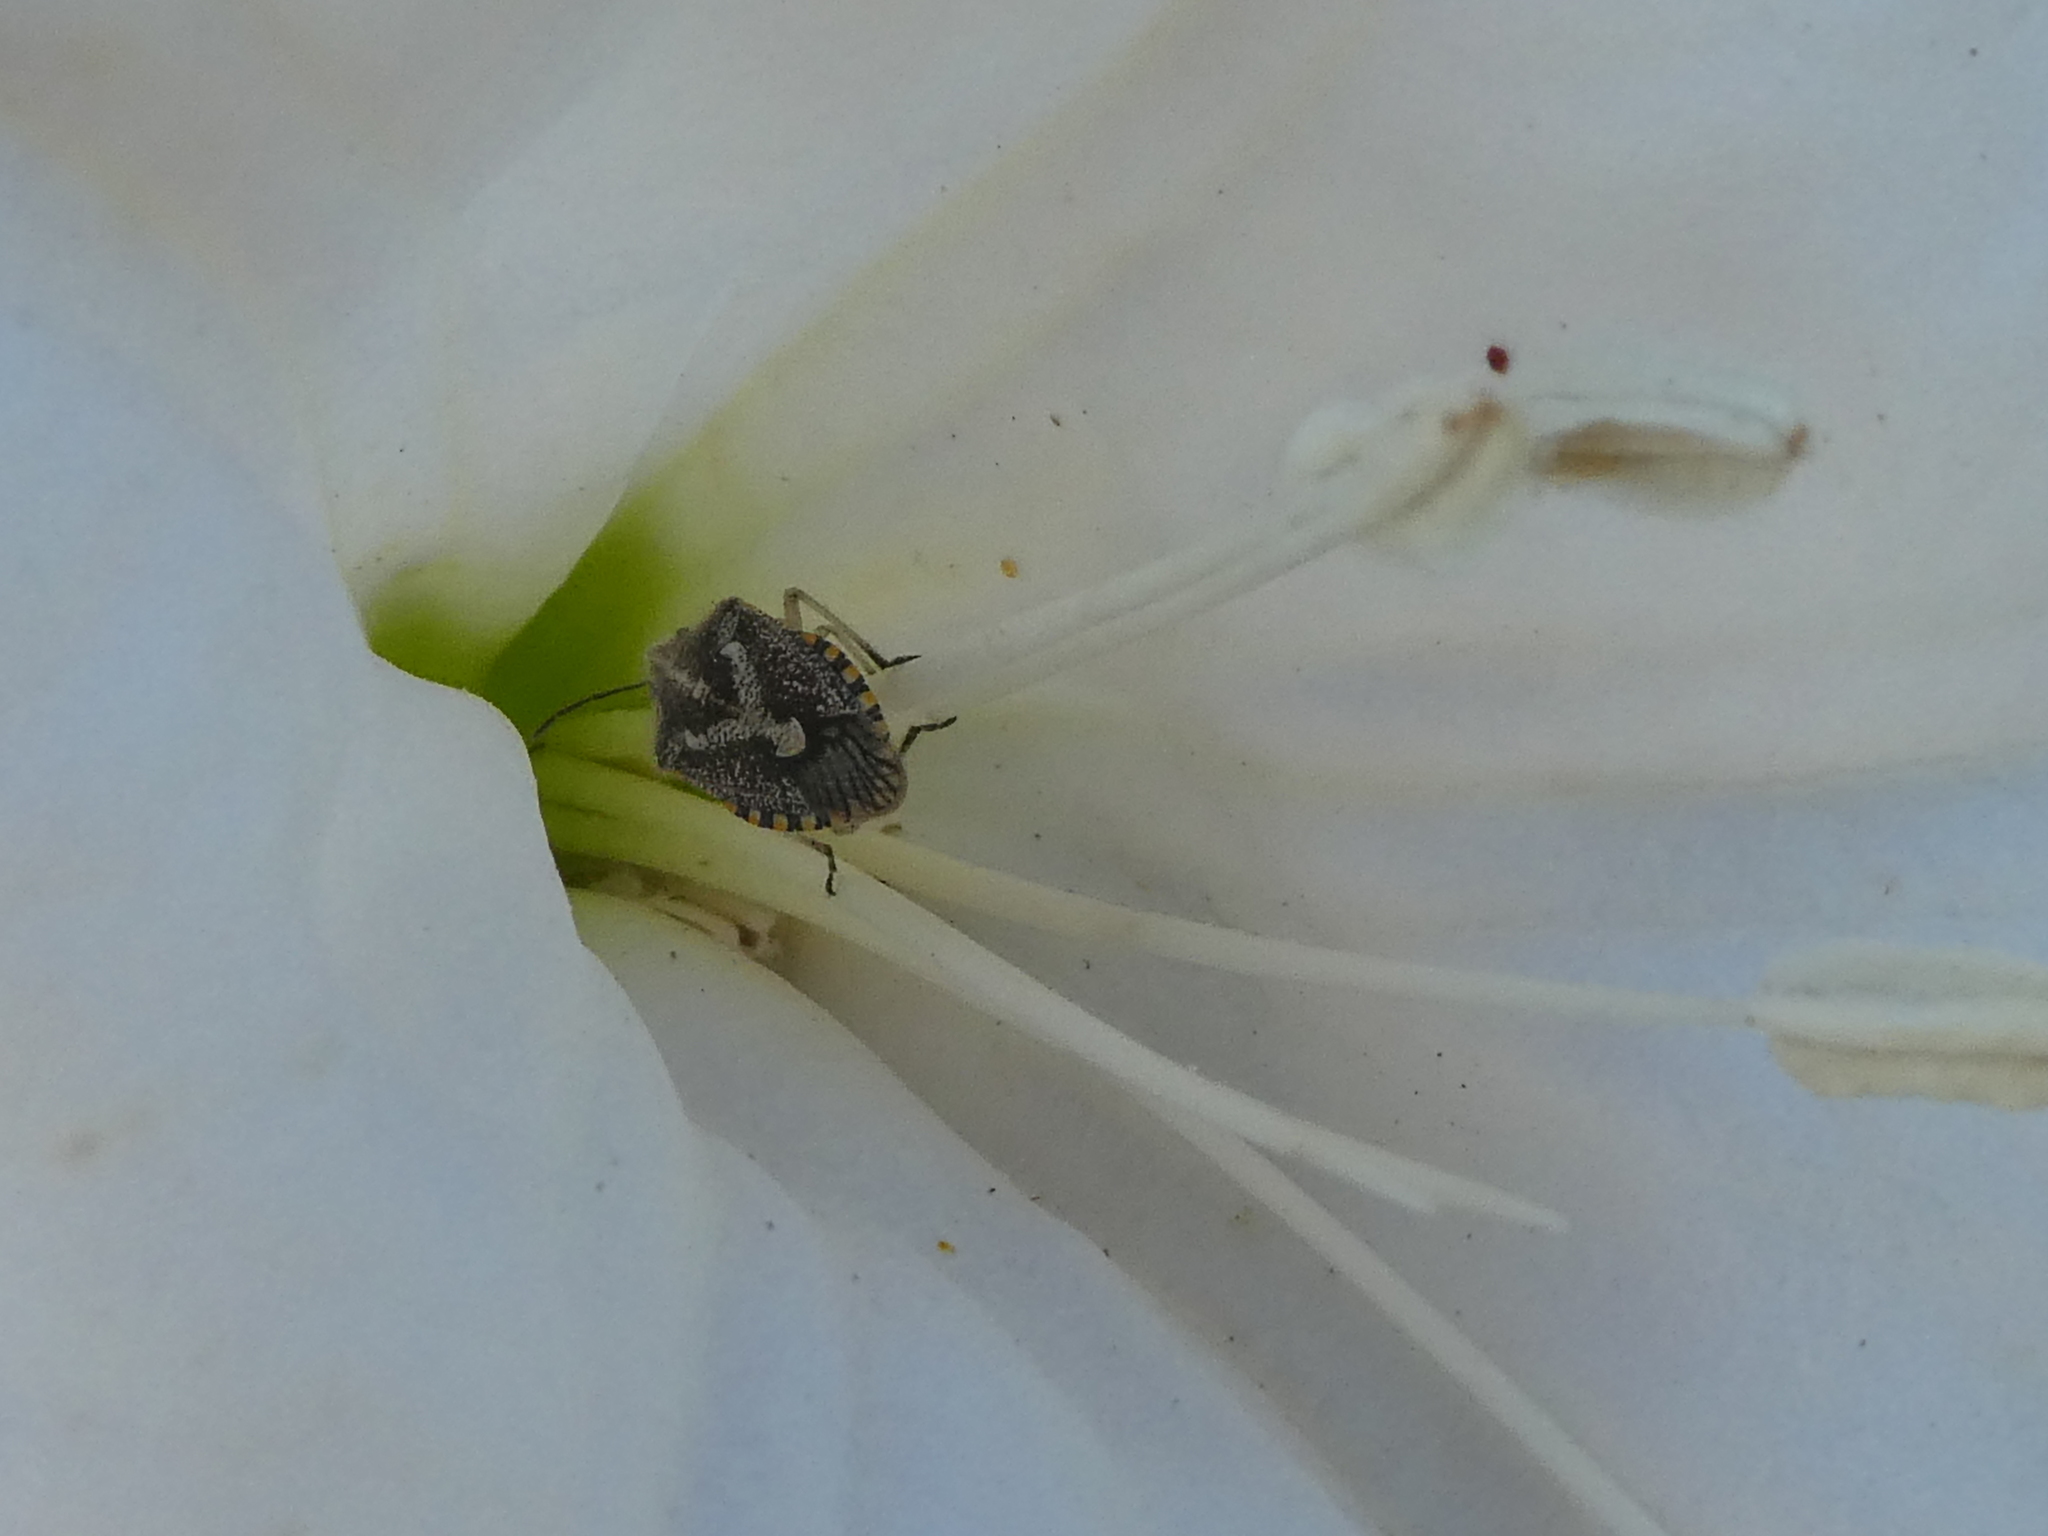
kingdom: Animalia
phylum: Arthropoda
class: Insecta
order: Hemiptera
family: Pentatomidae
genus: Agonoscelis
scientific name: Agonoscelis puberula
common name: African cluster bug
